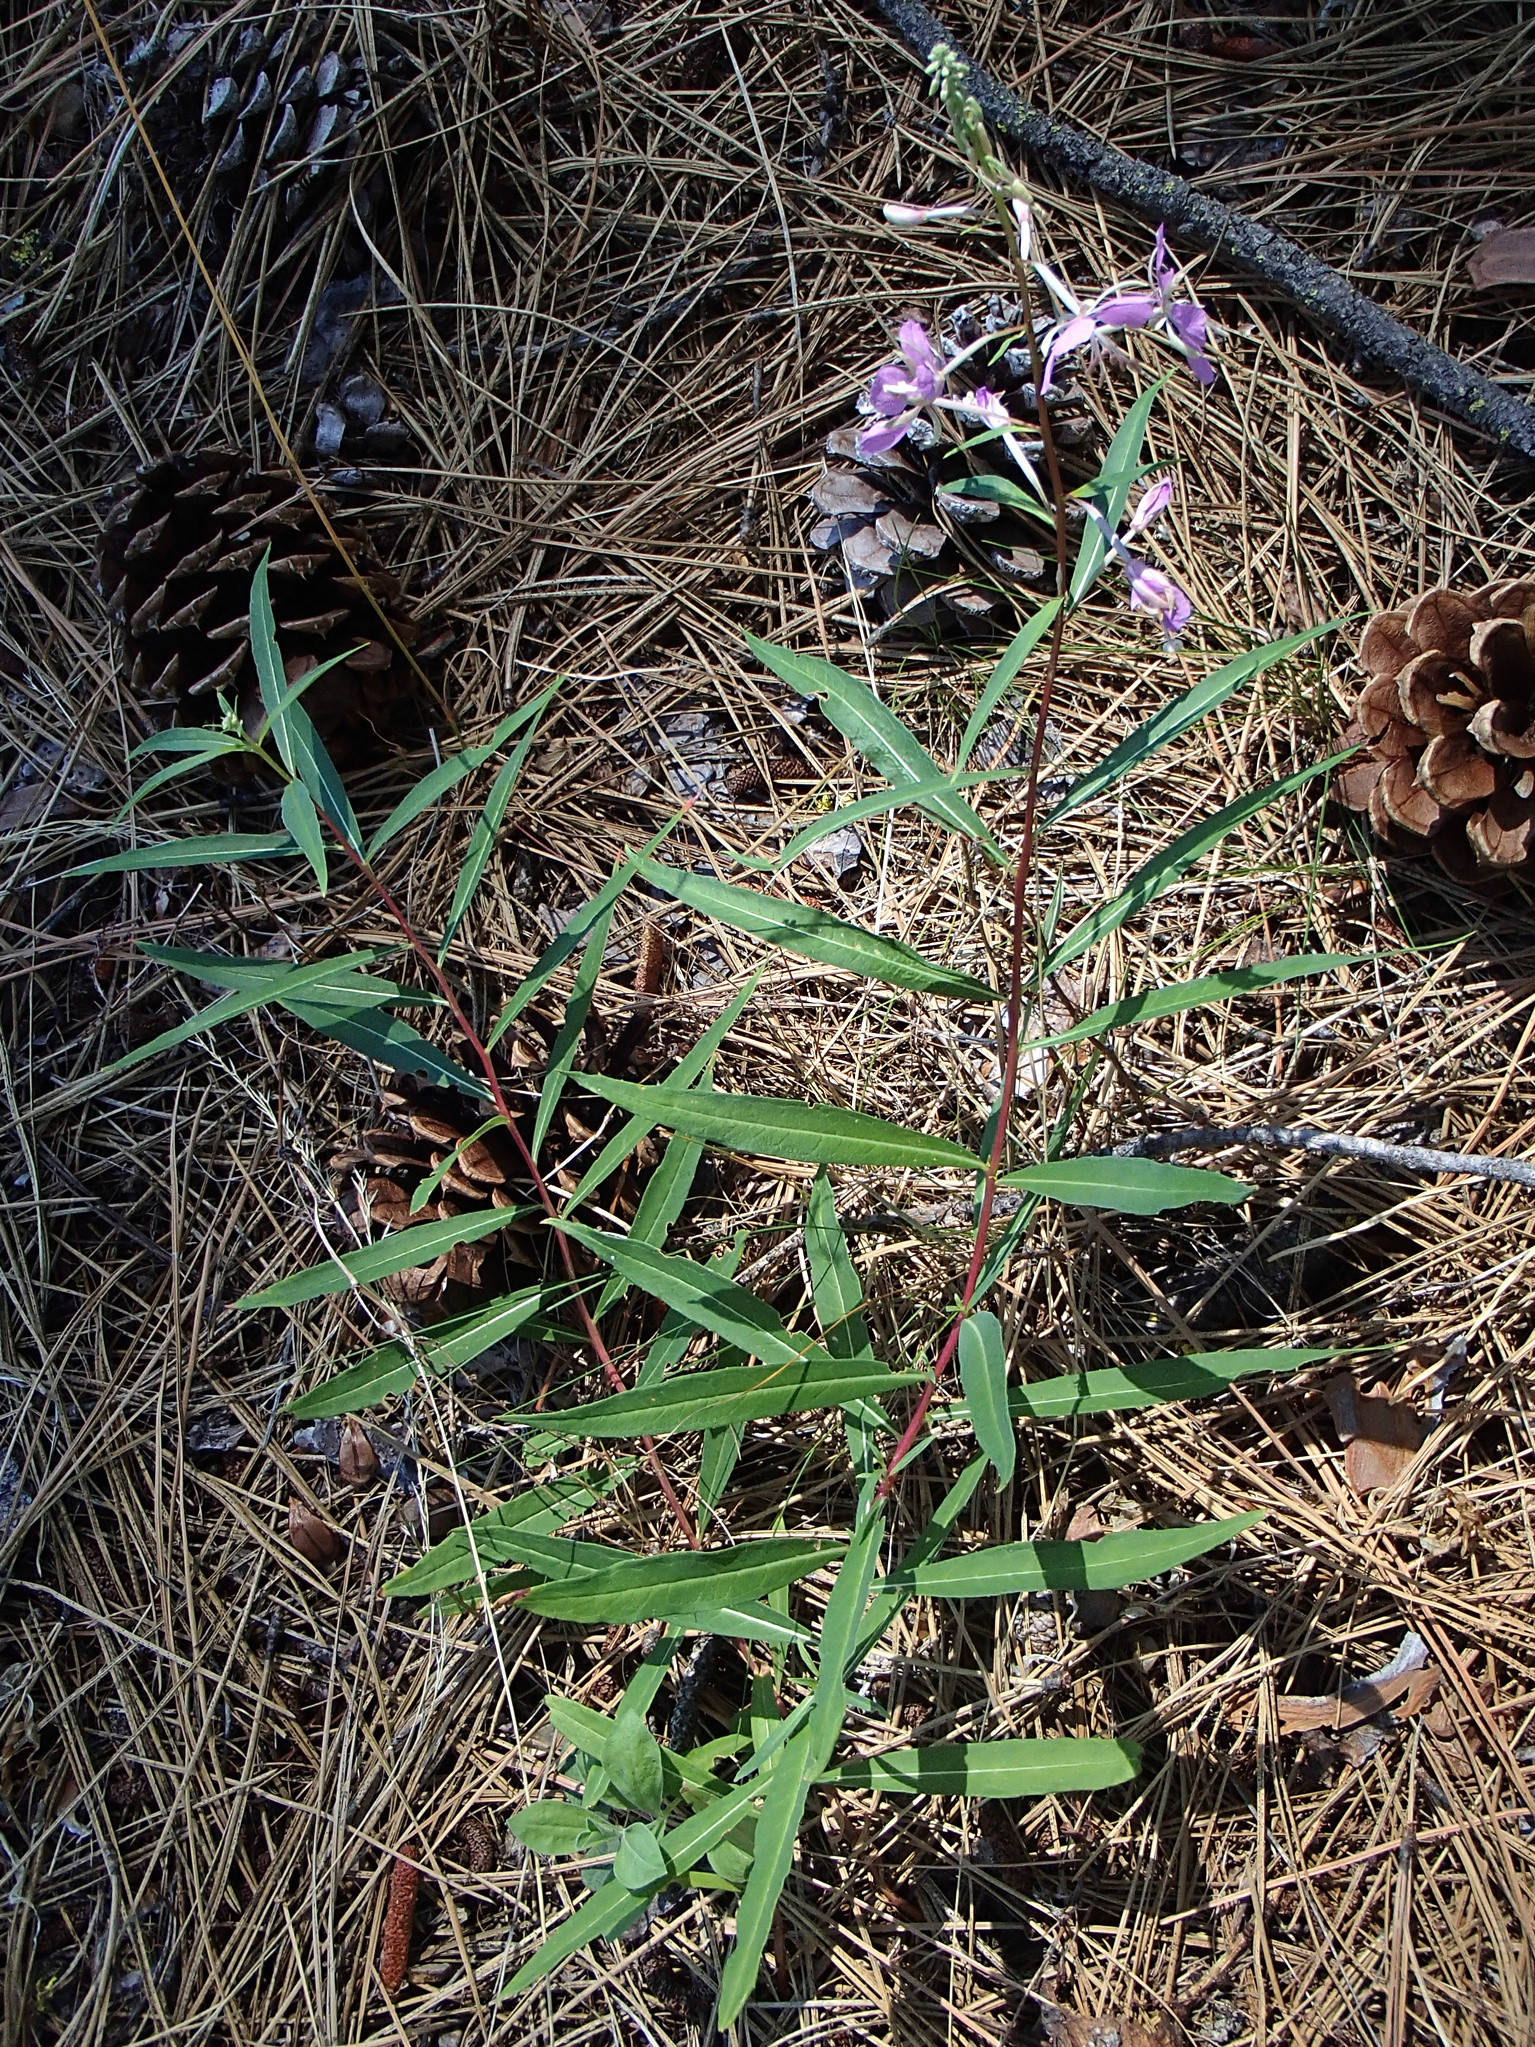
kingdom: Plantae
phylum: Tracheophyta
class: Magnoliopsida
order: Myrtales
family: Onagraceae
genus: Chamaenerion
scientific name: Chamaenerion angustifolium
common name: Fireweed
